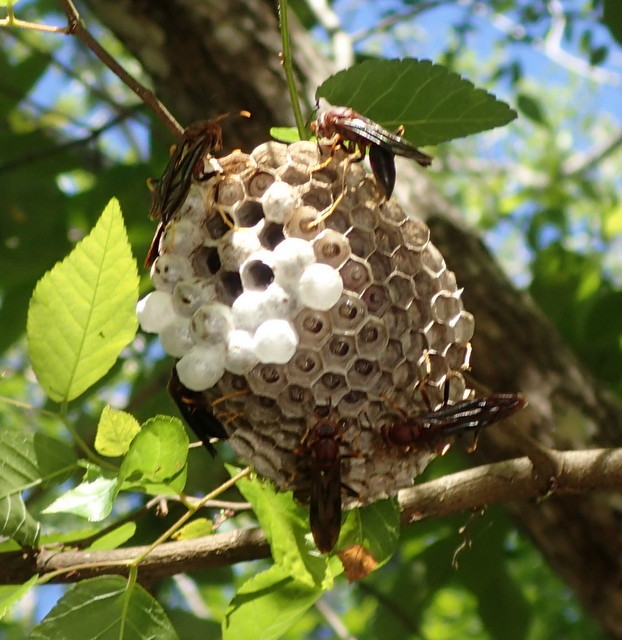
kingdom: Animalia
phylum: Arthropoda
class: Insecta
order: Hymenoptera
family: Eumenidae
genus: Polistes
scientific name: Polistes annularis
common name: Ringed paper wasp
